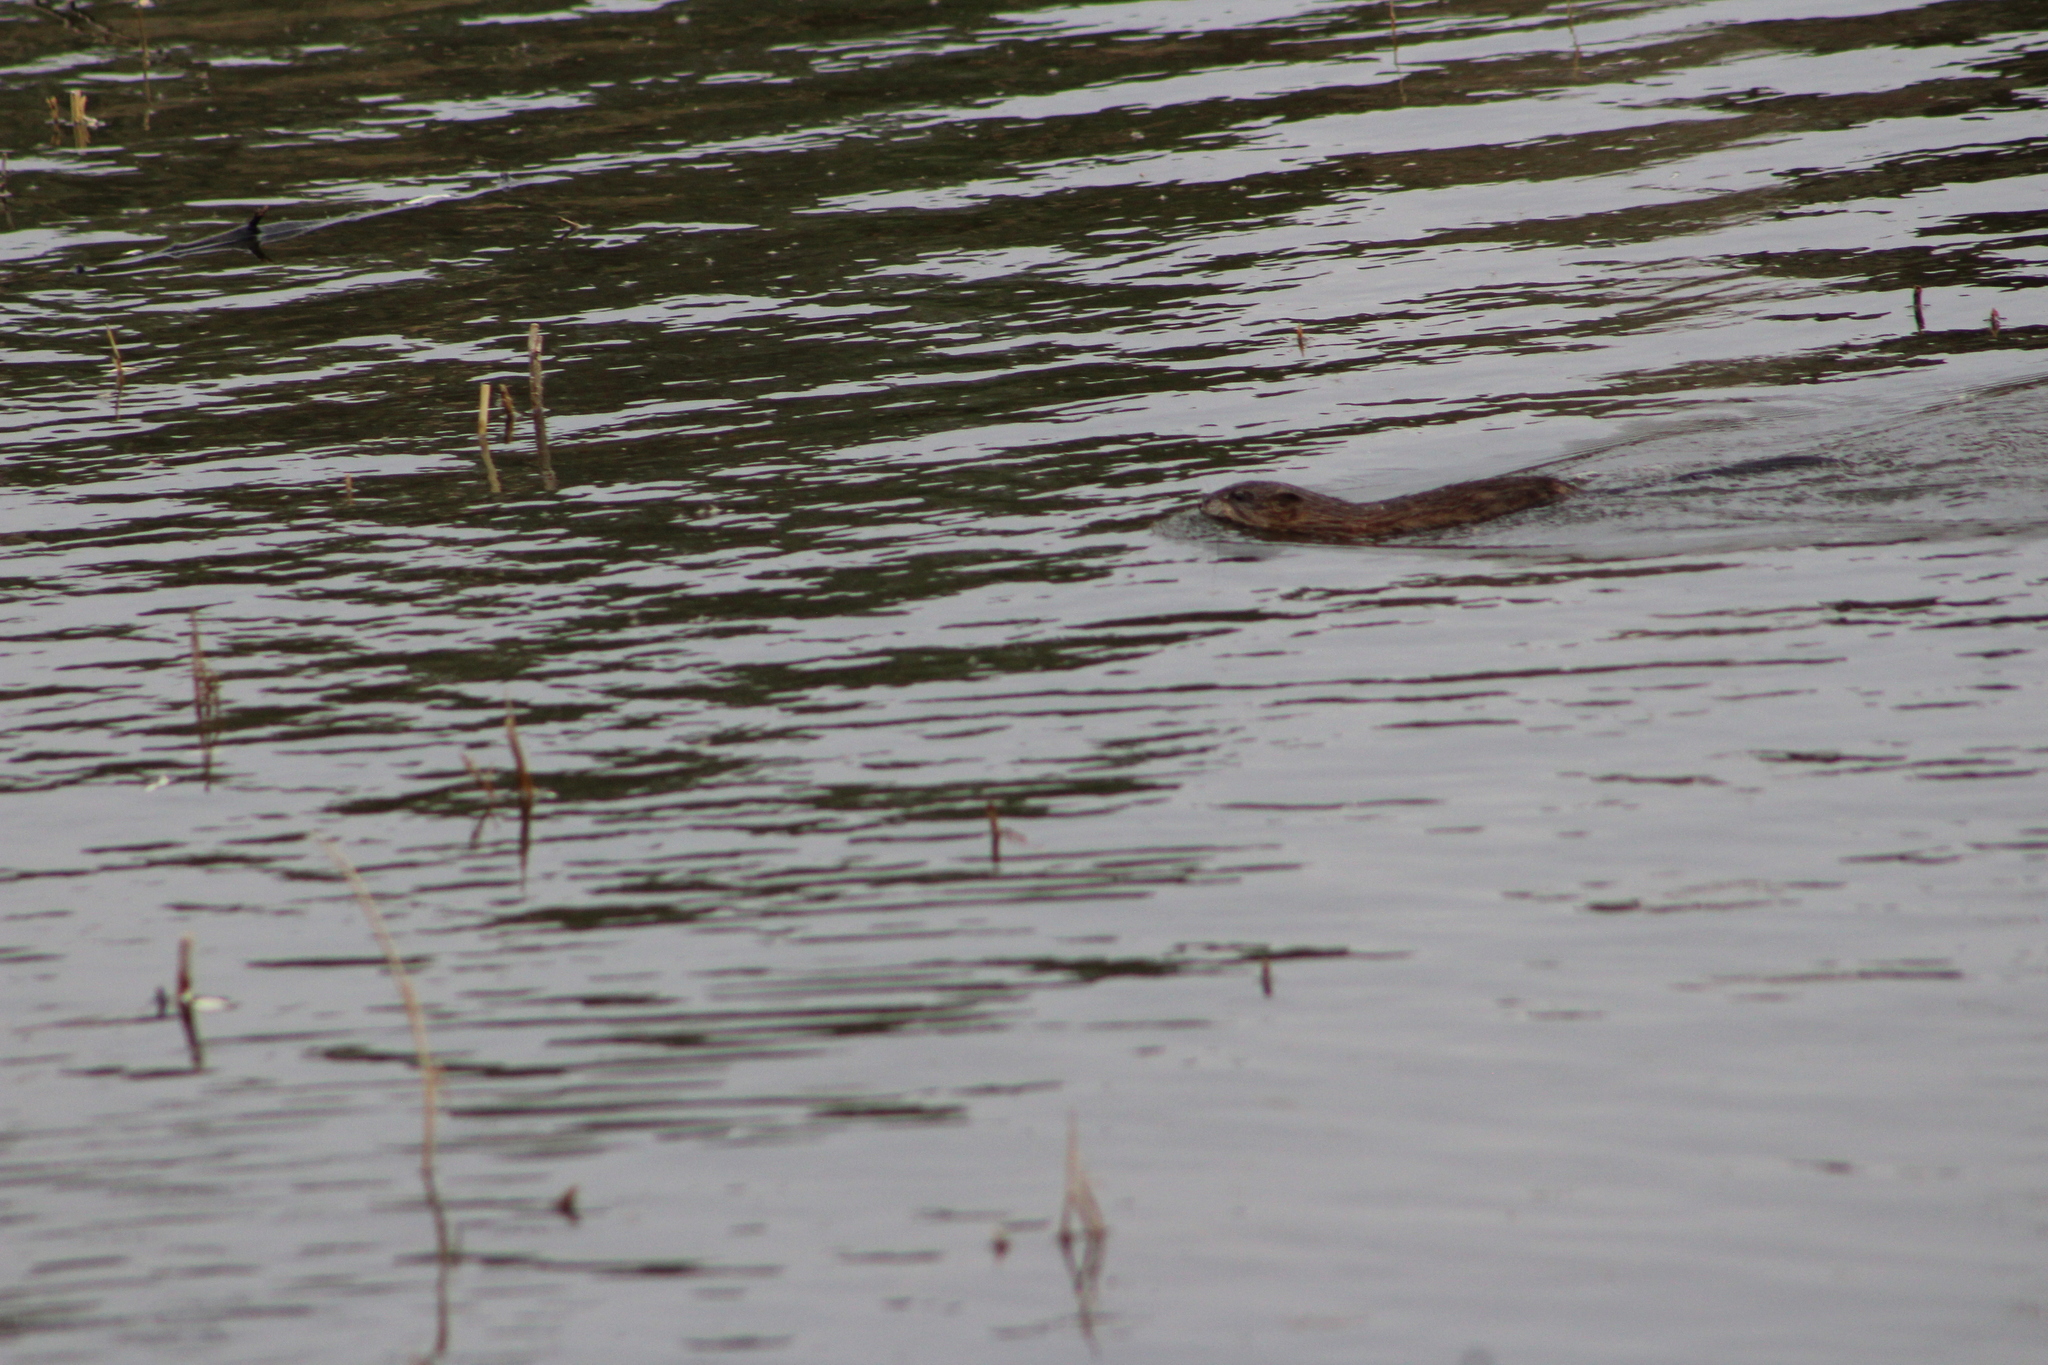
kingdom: Animalia
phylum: Chordata
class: Mammalia
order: Rodentia
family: Cricetidae
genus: Ondatra
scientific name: Ondatra zibethicus
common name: Muskrat
